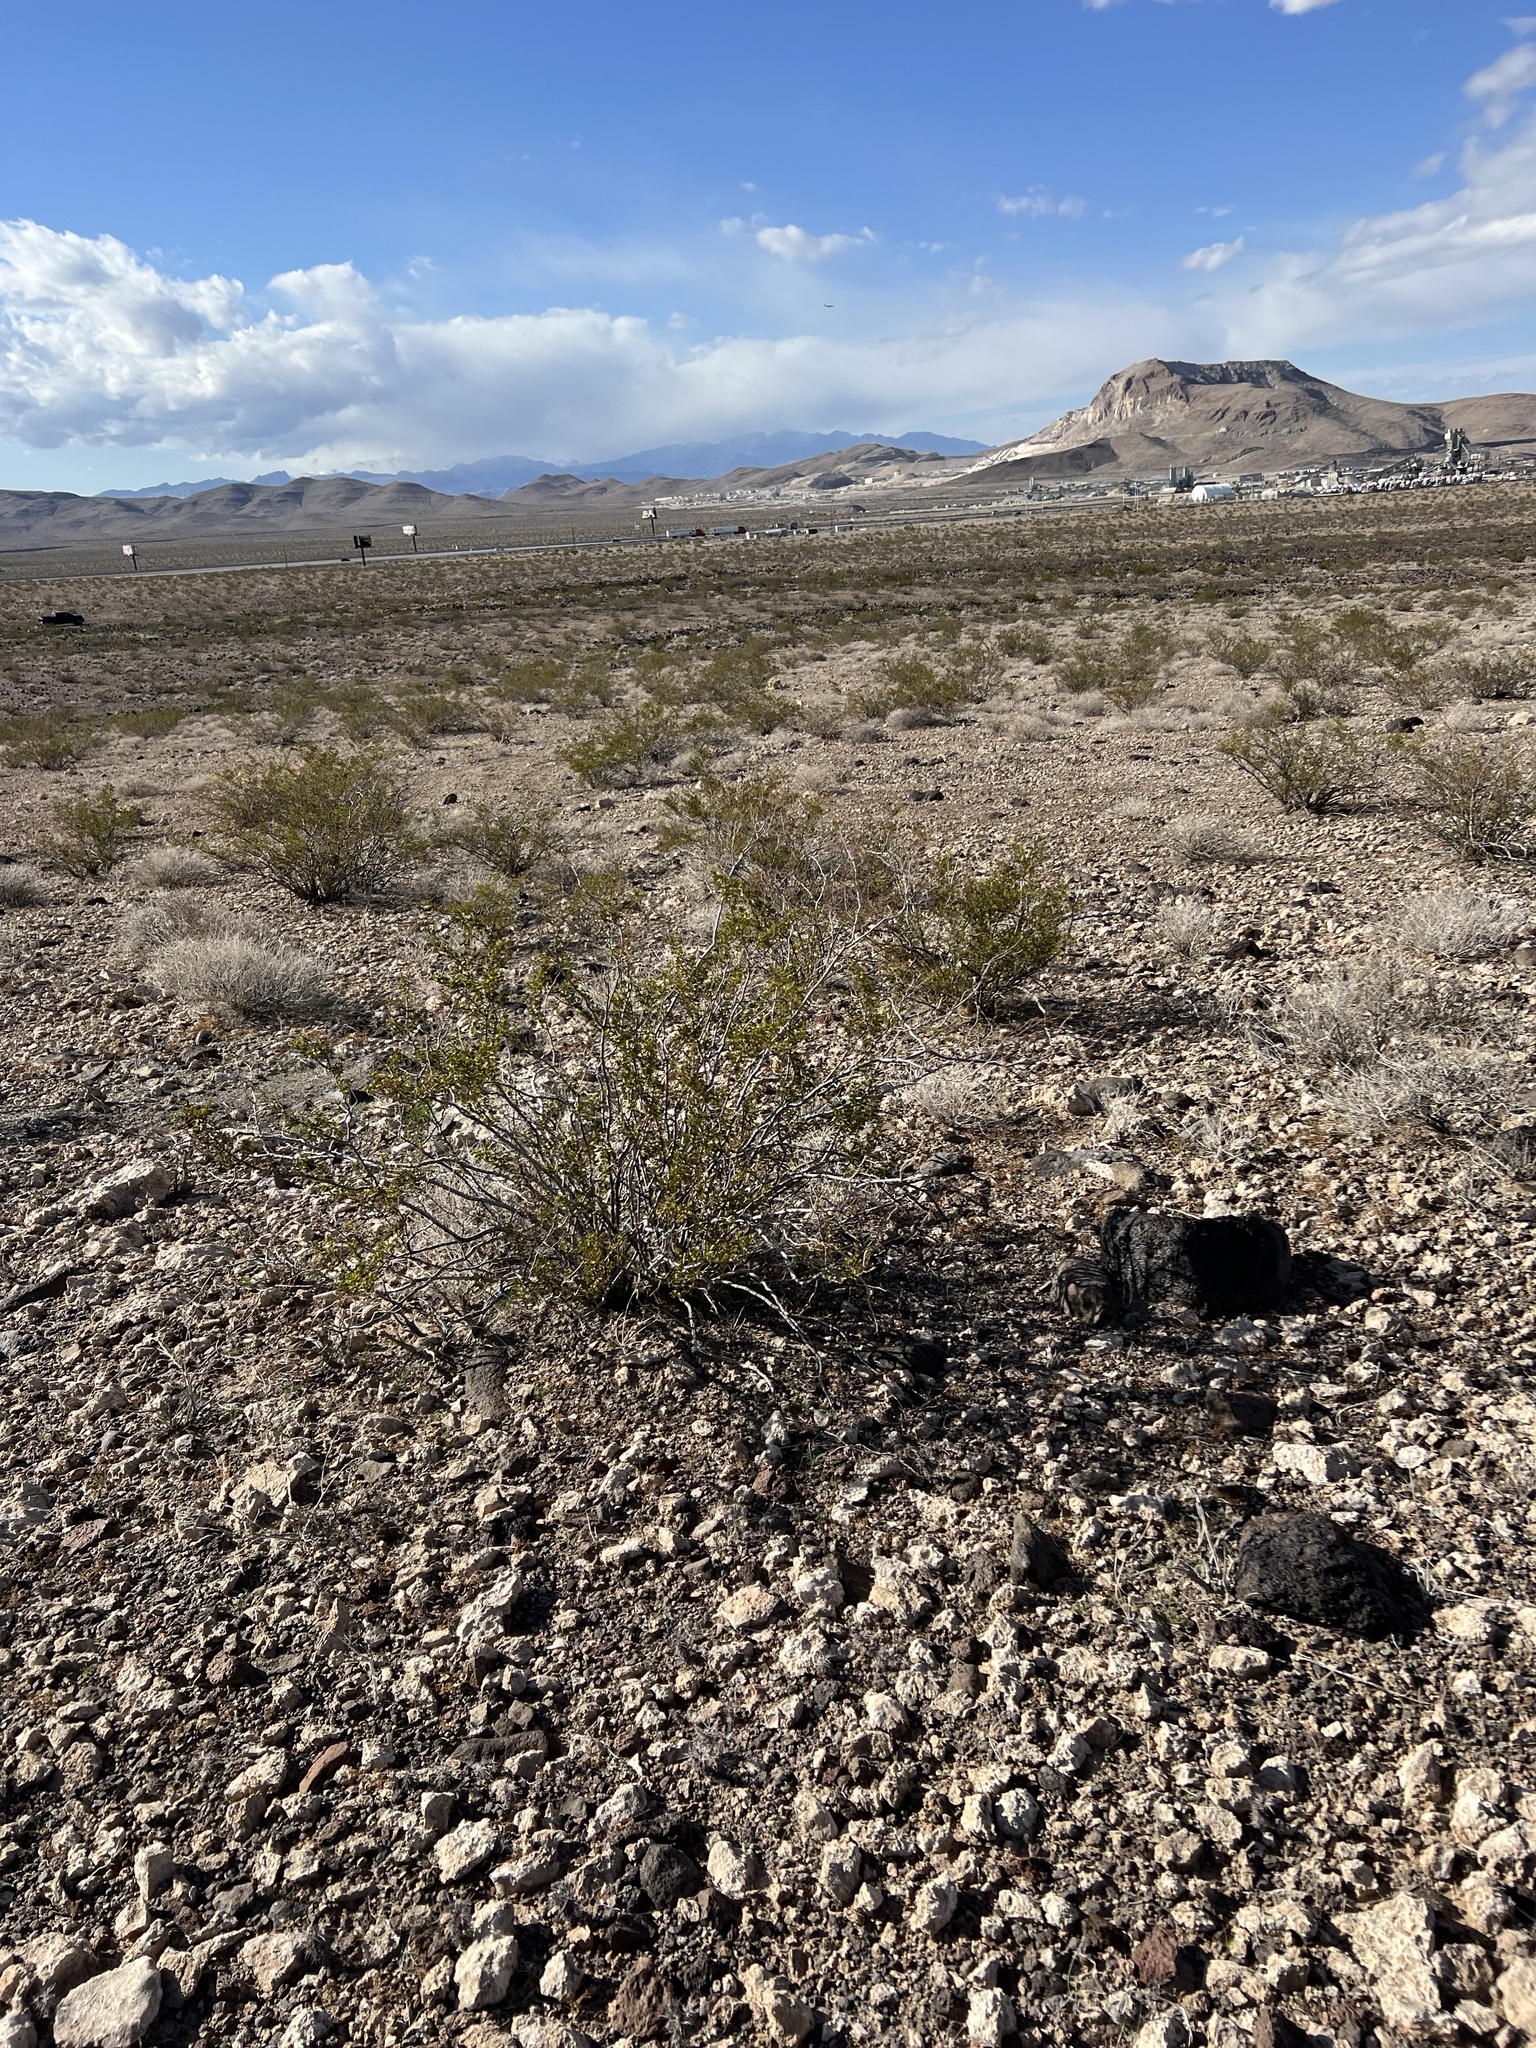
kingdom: Plantae
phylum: Tracheophyta
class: Magnoliopsida
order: Zygophyllales
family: Zygophyllaceae
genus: Larrea
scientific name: Larrea tridentata
